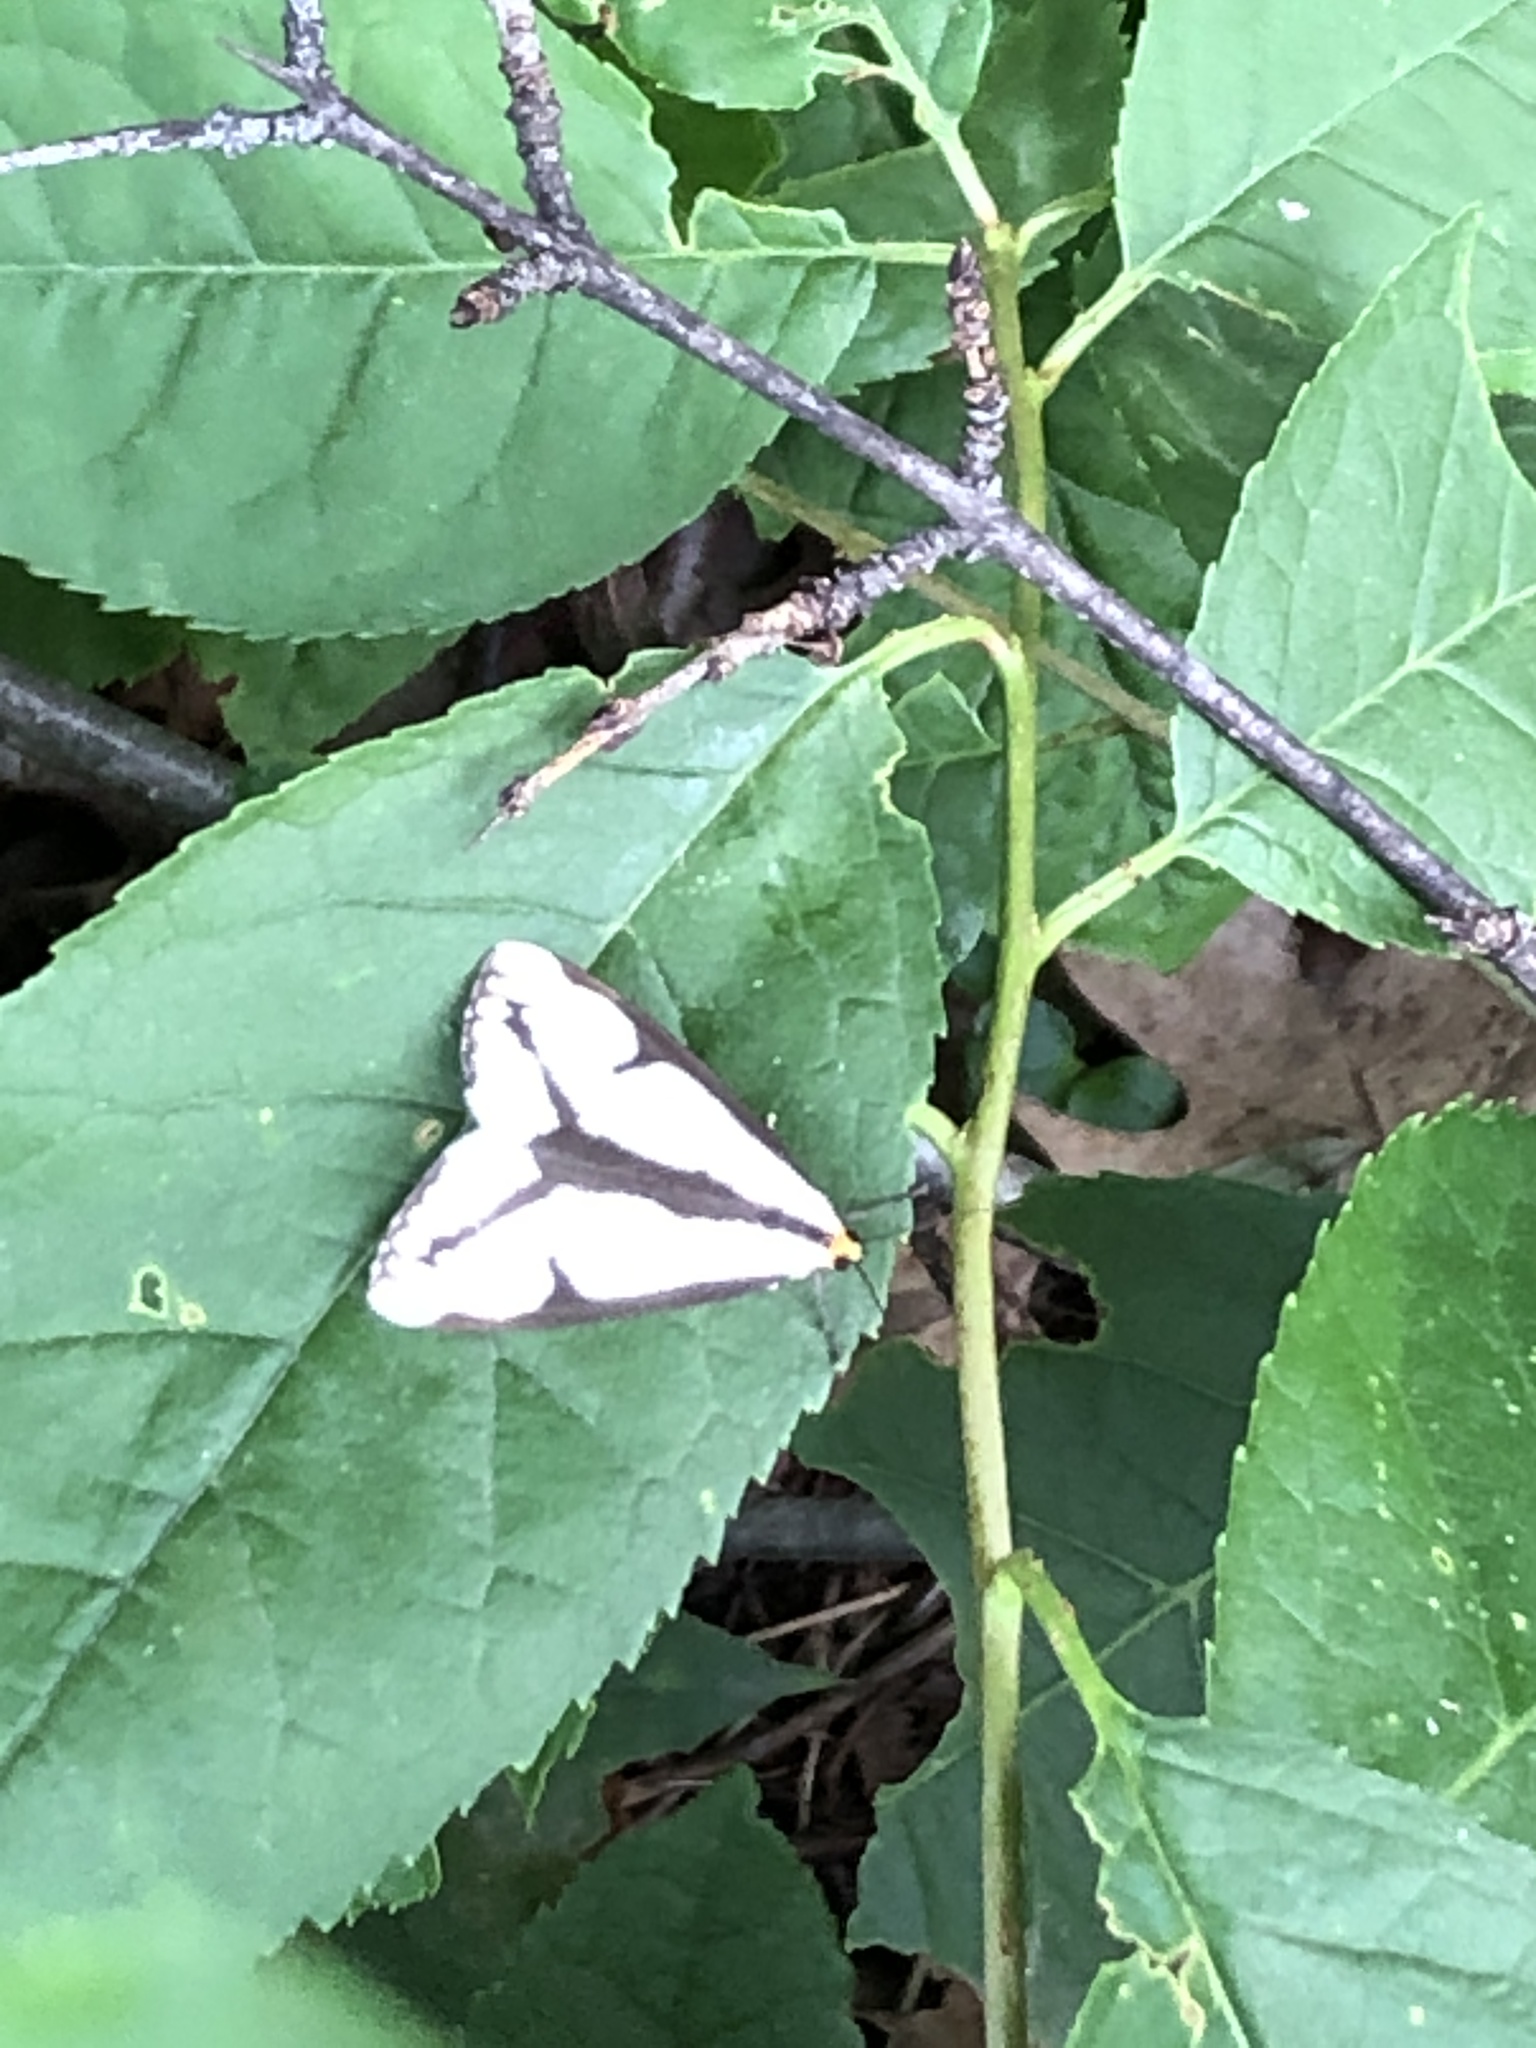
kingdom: Animalia
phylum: Arthropoda
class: Insecta
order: Lepidoptera
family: Erebidae
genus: Haploa
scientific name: Haploa lecontei
